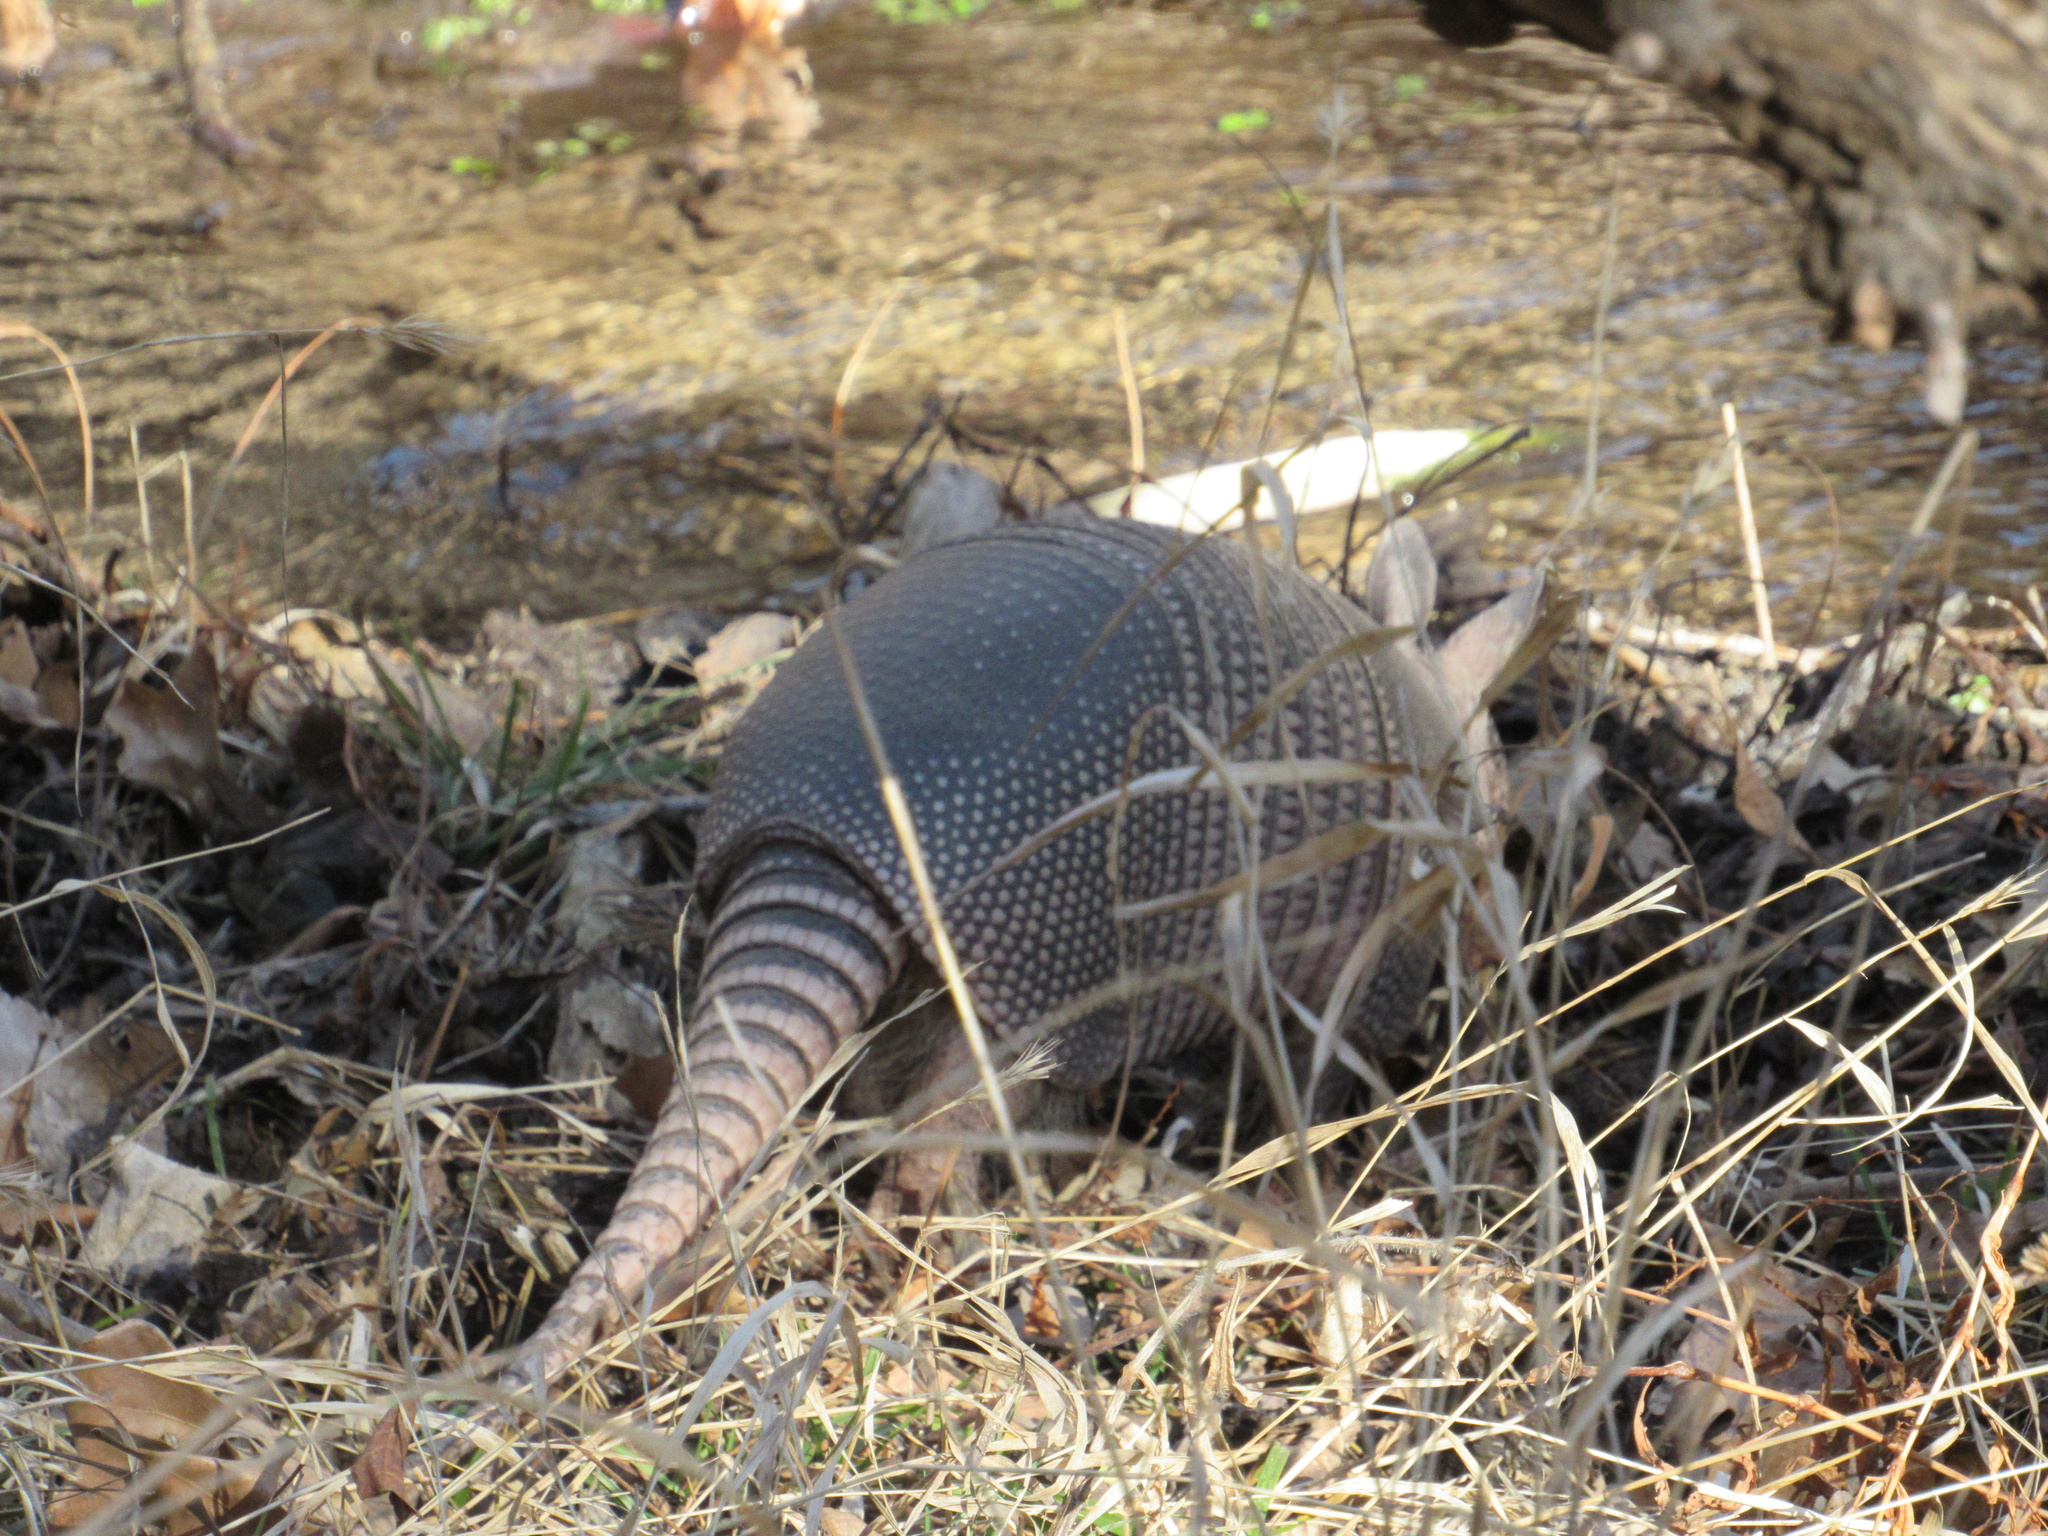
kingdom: Animalia
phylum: Chordata
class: Mammalia
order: Cingulata
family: Dasypodidae
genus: Dasypus
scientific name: Dasypus novemcinctus
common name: Nine-banded armadillo
